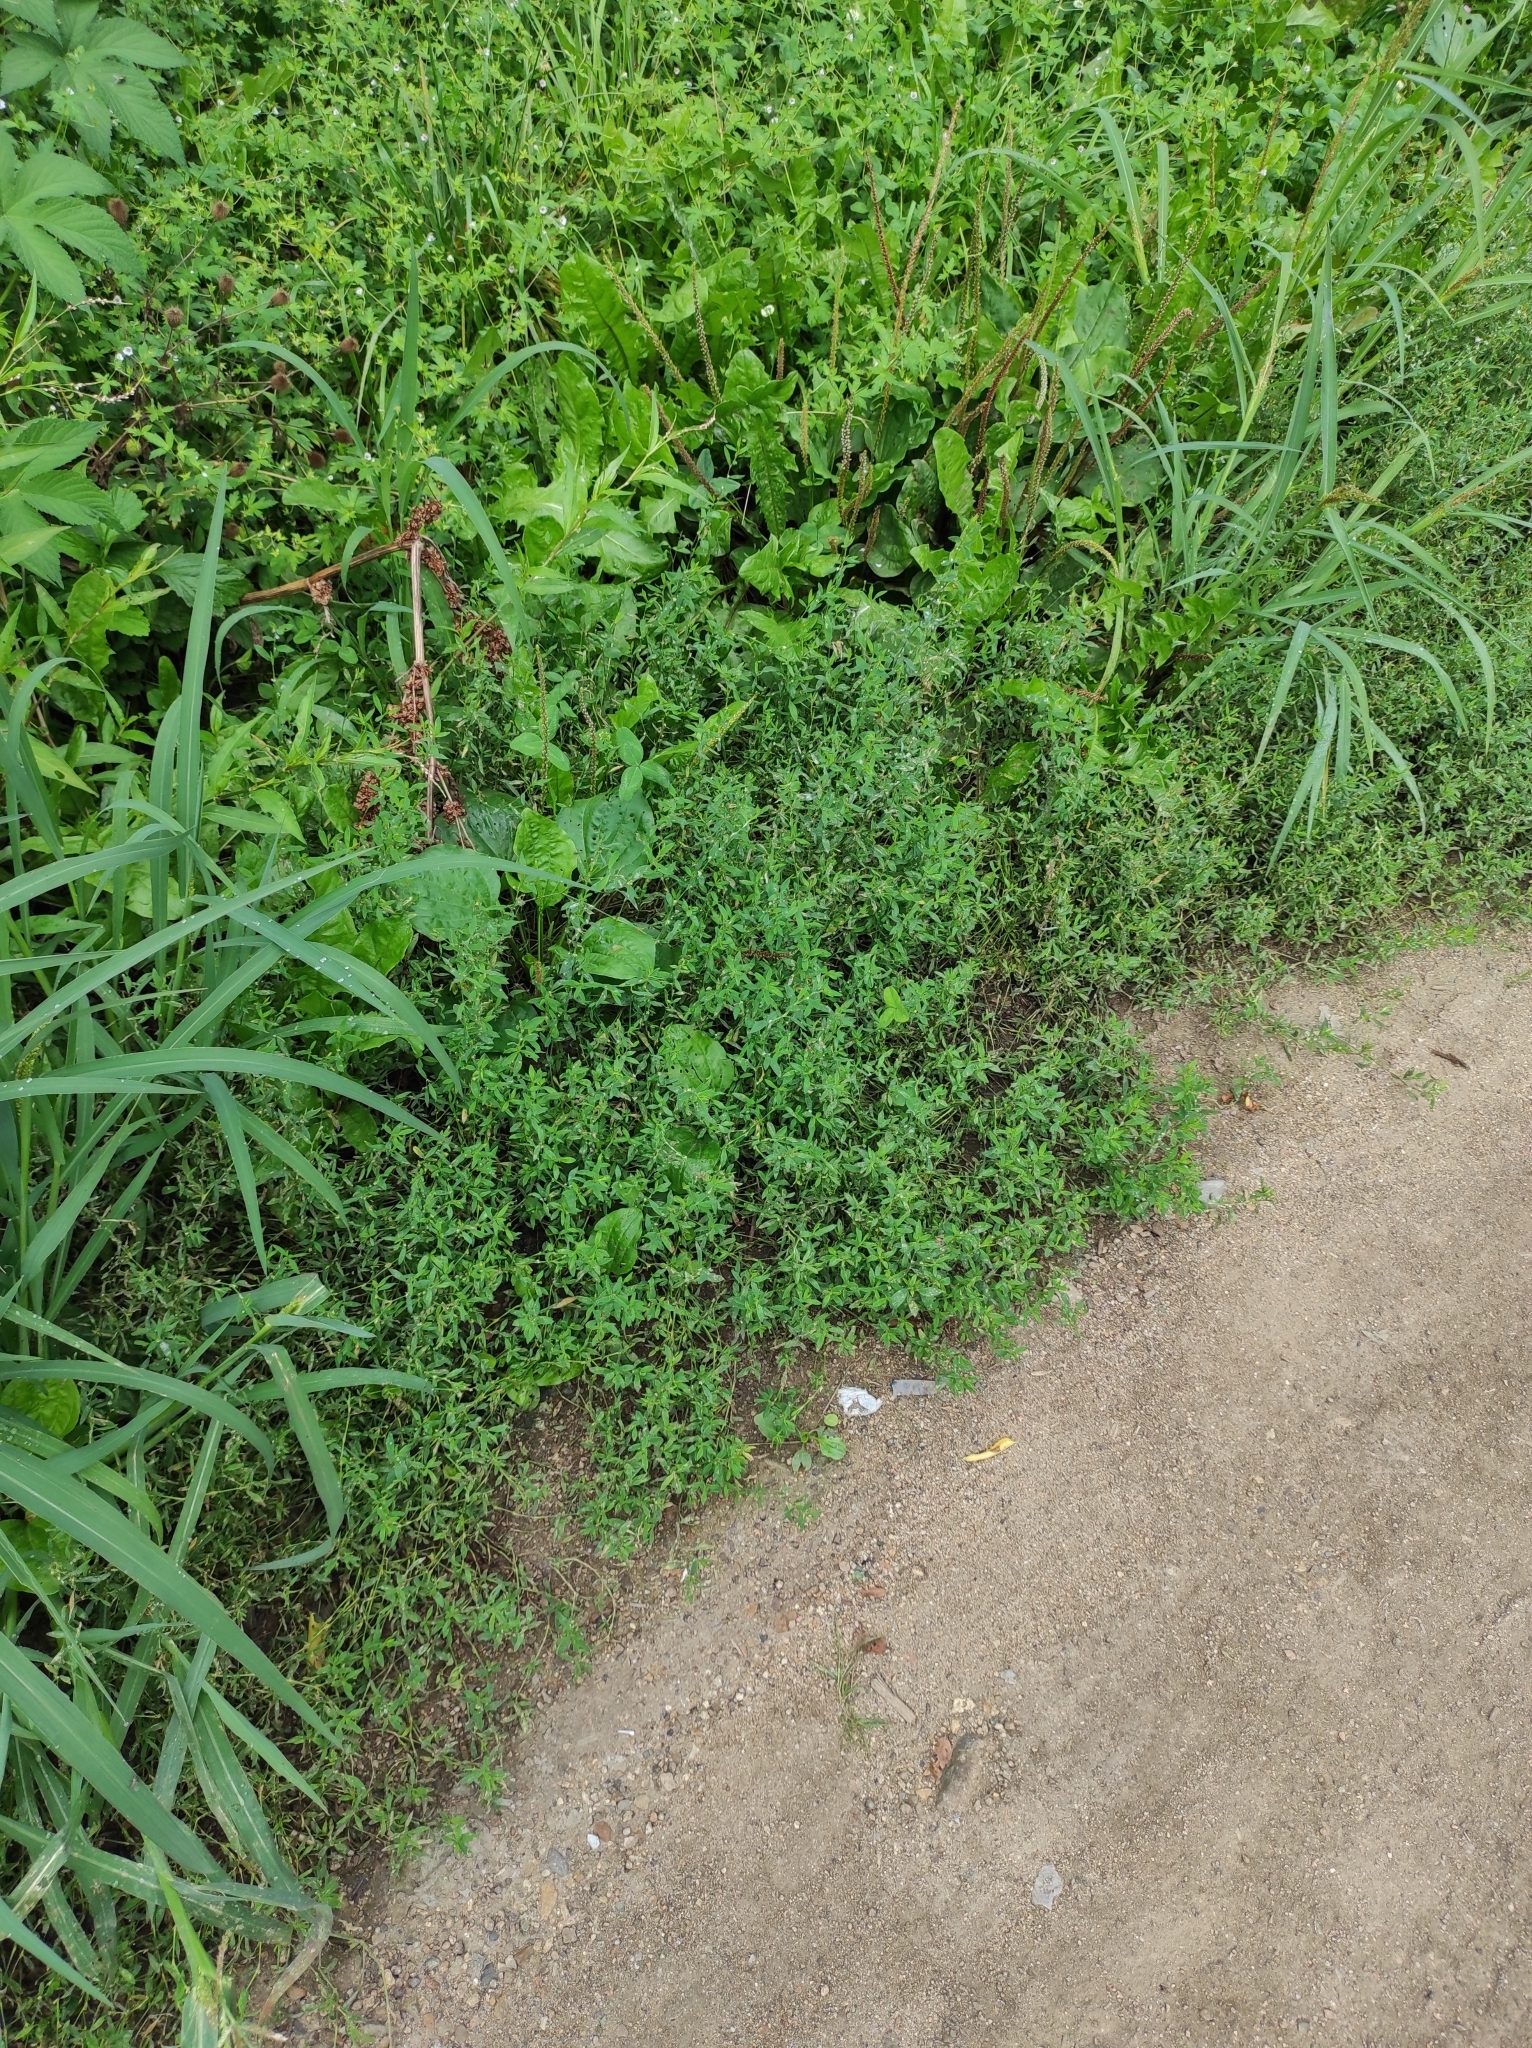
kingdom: Plantae
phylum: Tracheophyta
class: Magnoliopsida
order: Caryophyllales
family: Polygonaceae
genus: Polygonum
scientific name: Polygonum
